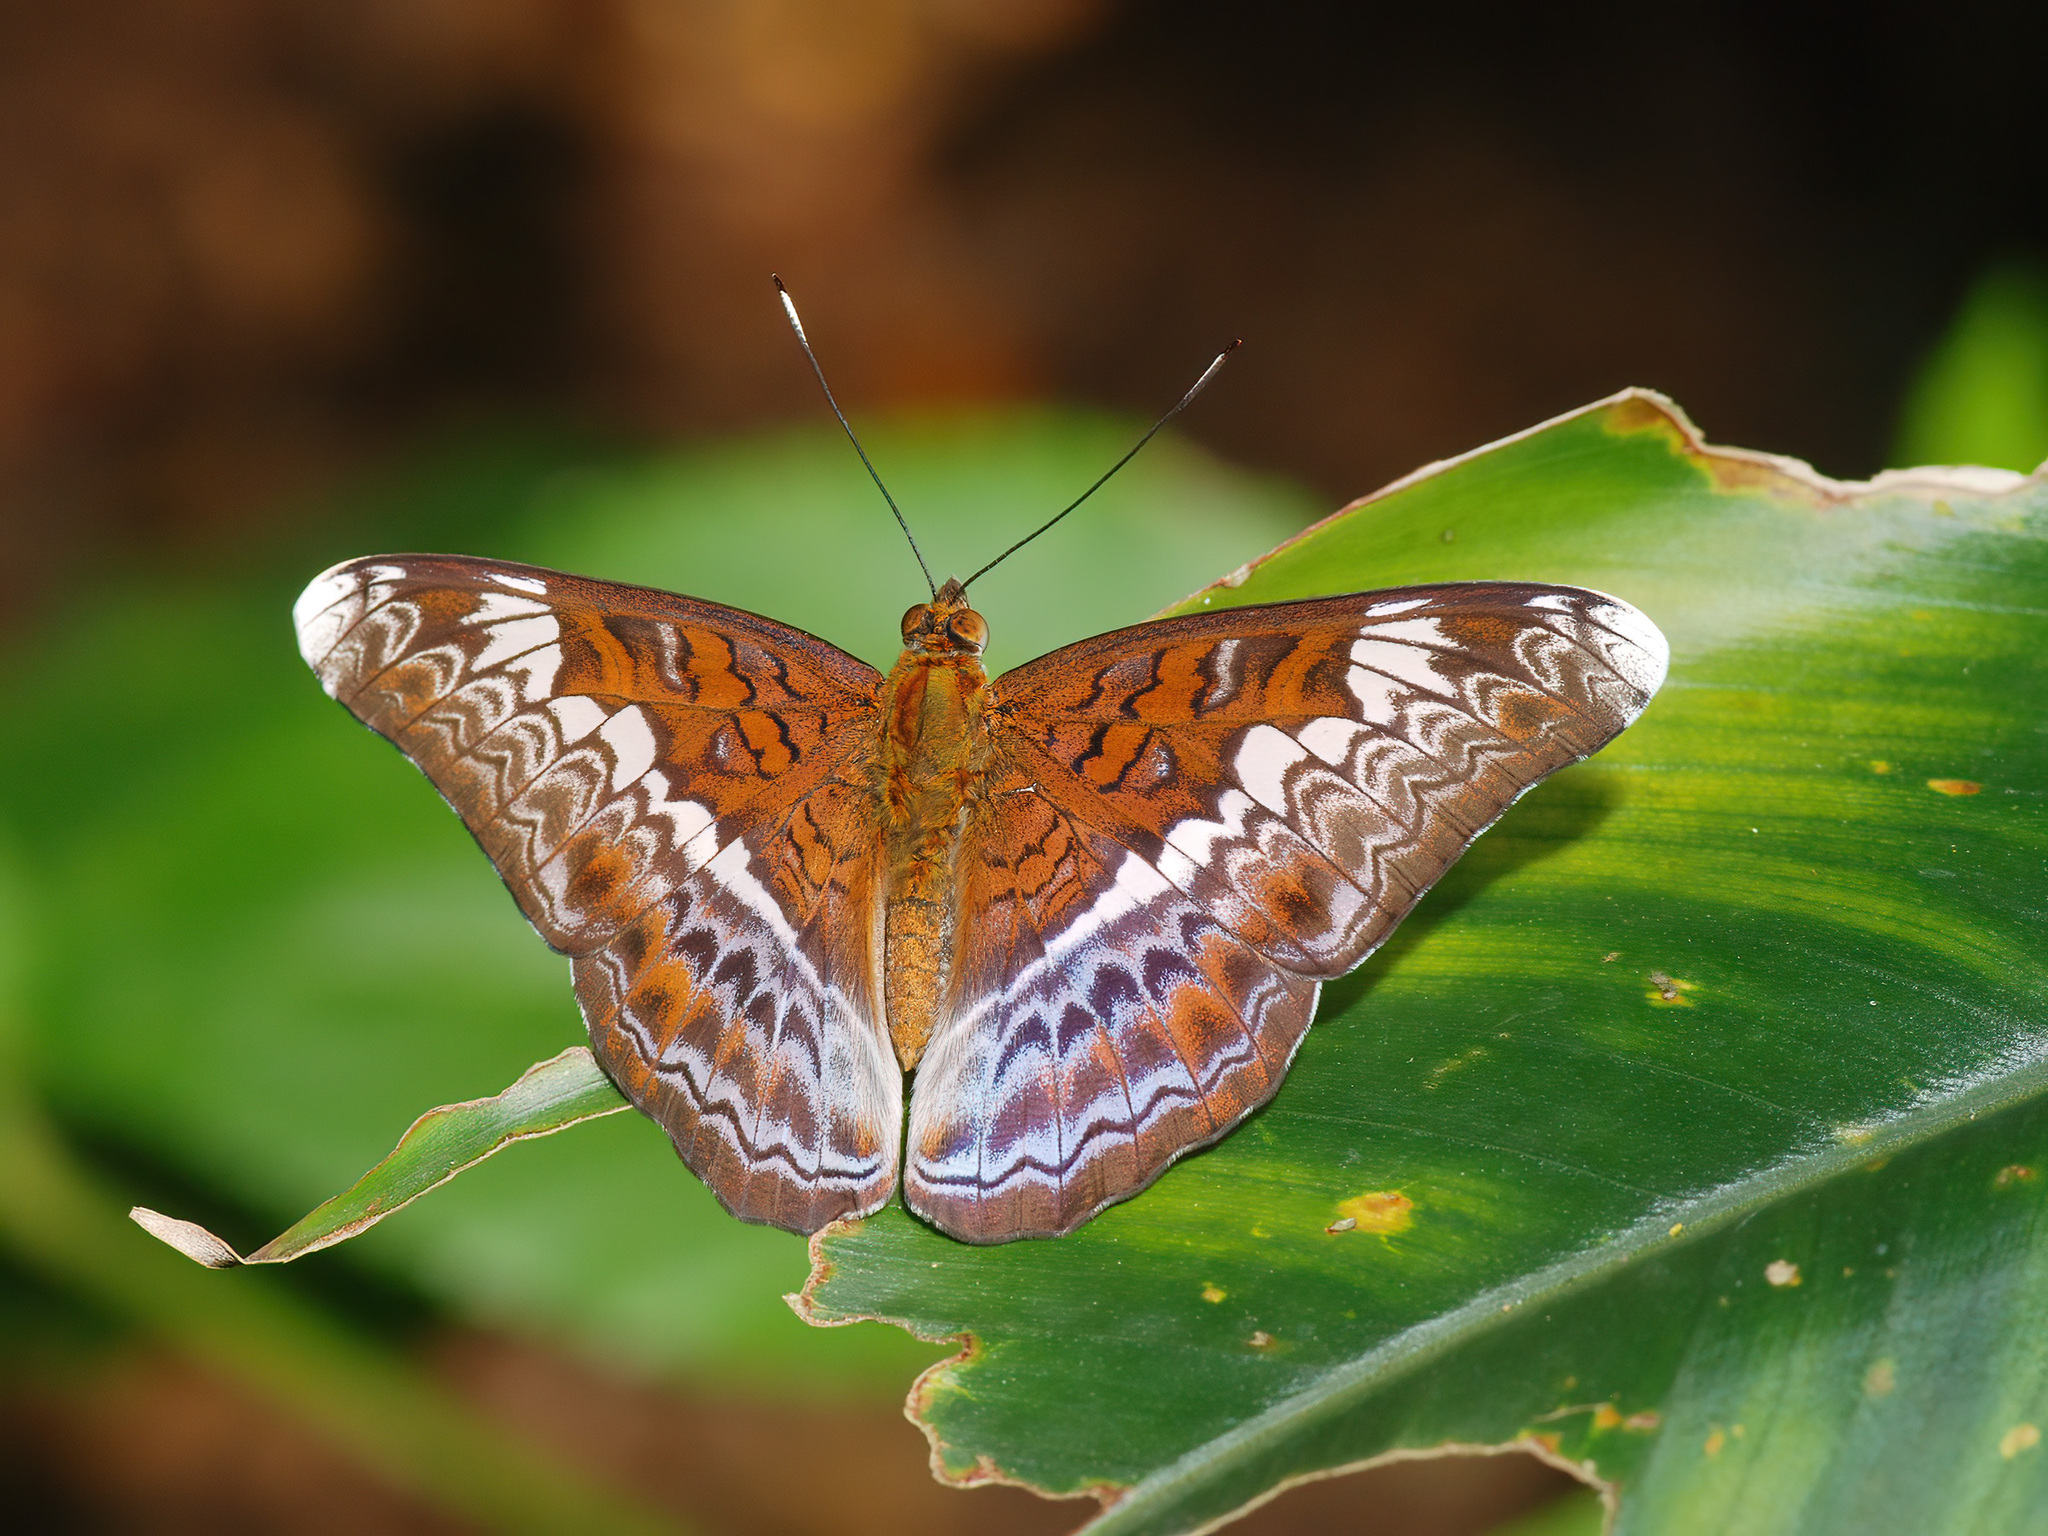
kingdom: Animalia
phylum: Arthropoda
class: Insecta
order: Lepidoptera
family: Nymphalidae
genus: Lebadea
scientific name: Lebadea martha
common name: Knight
